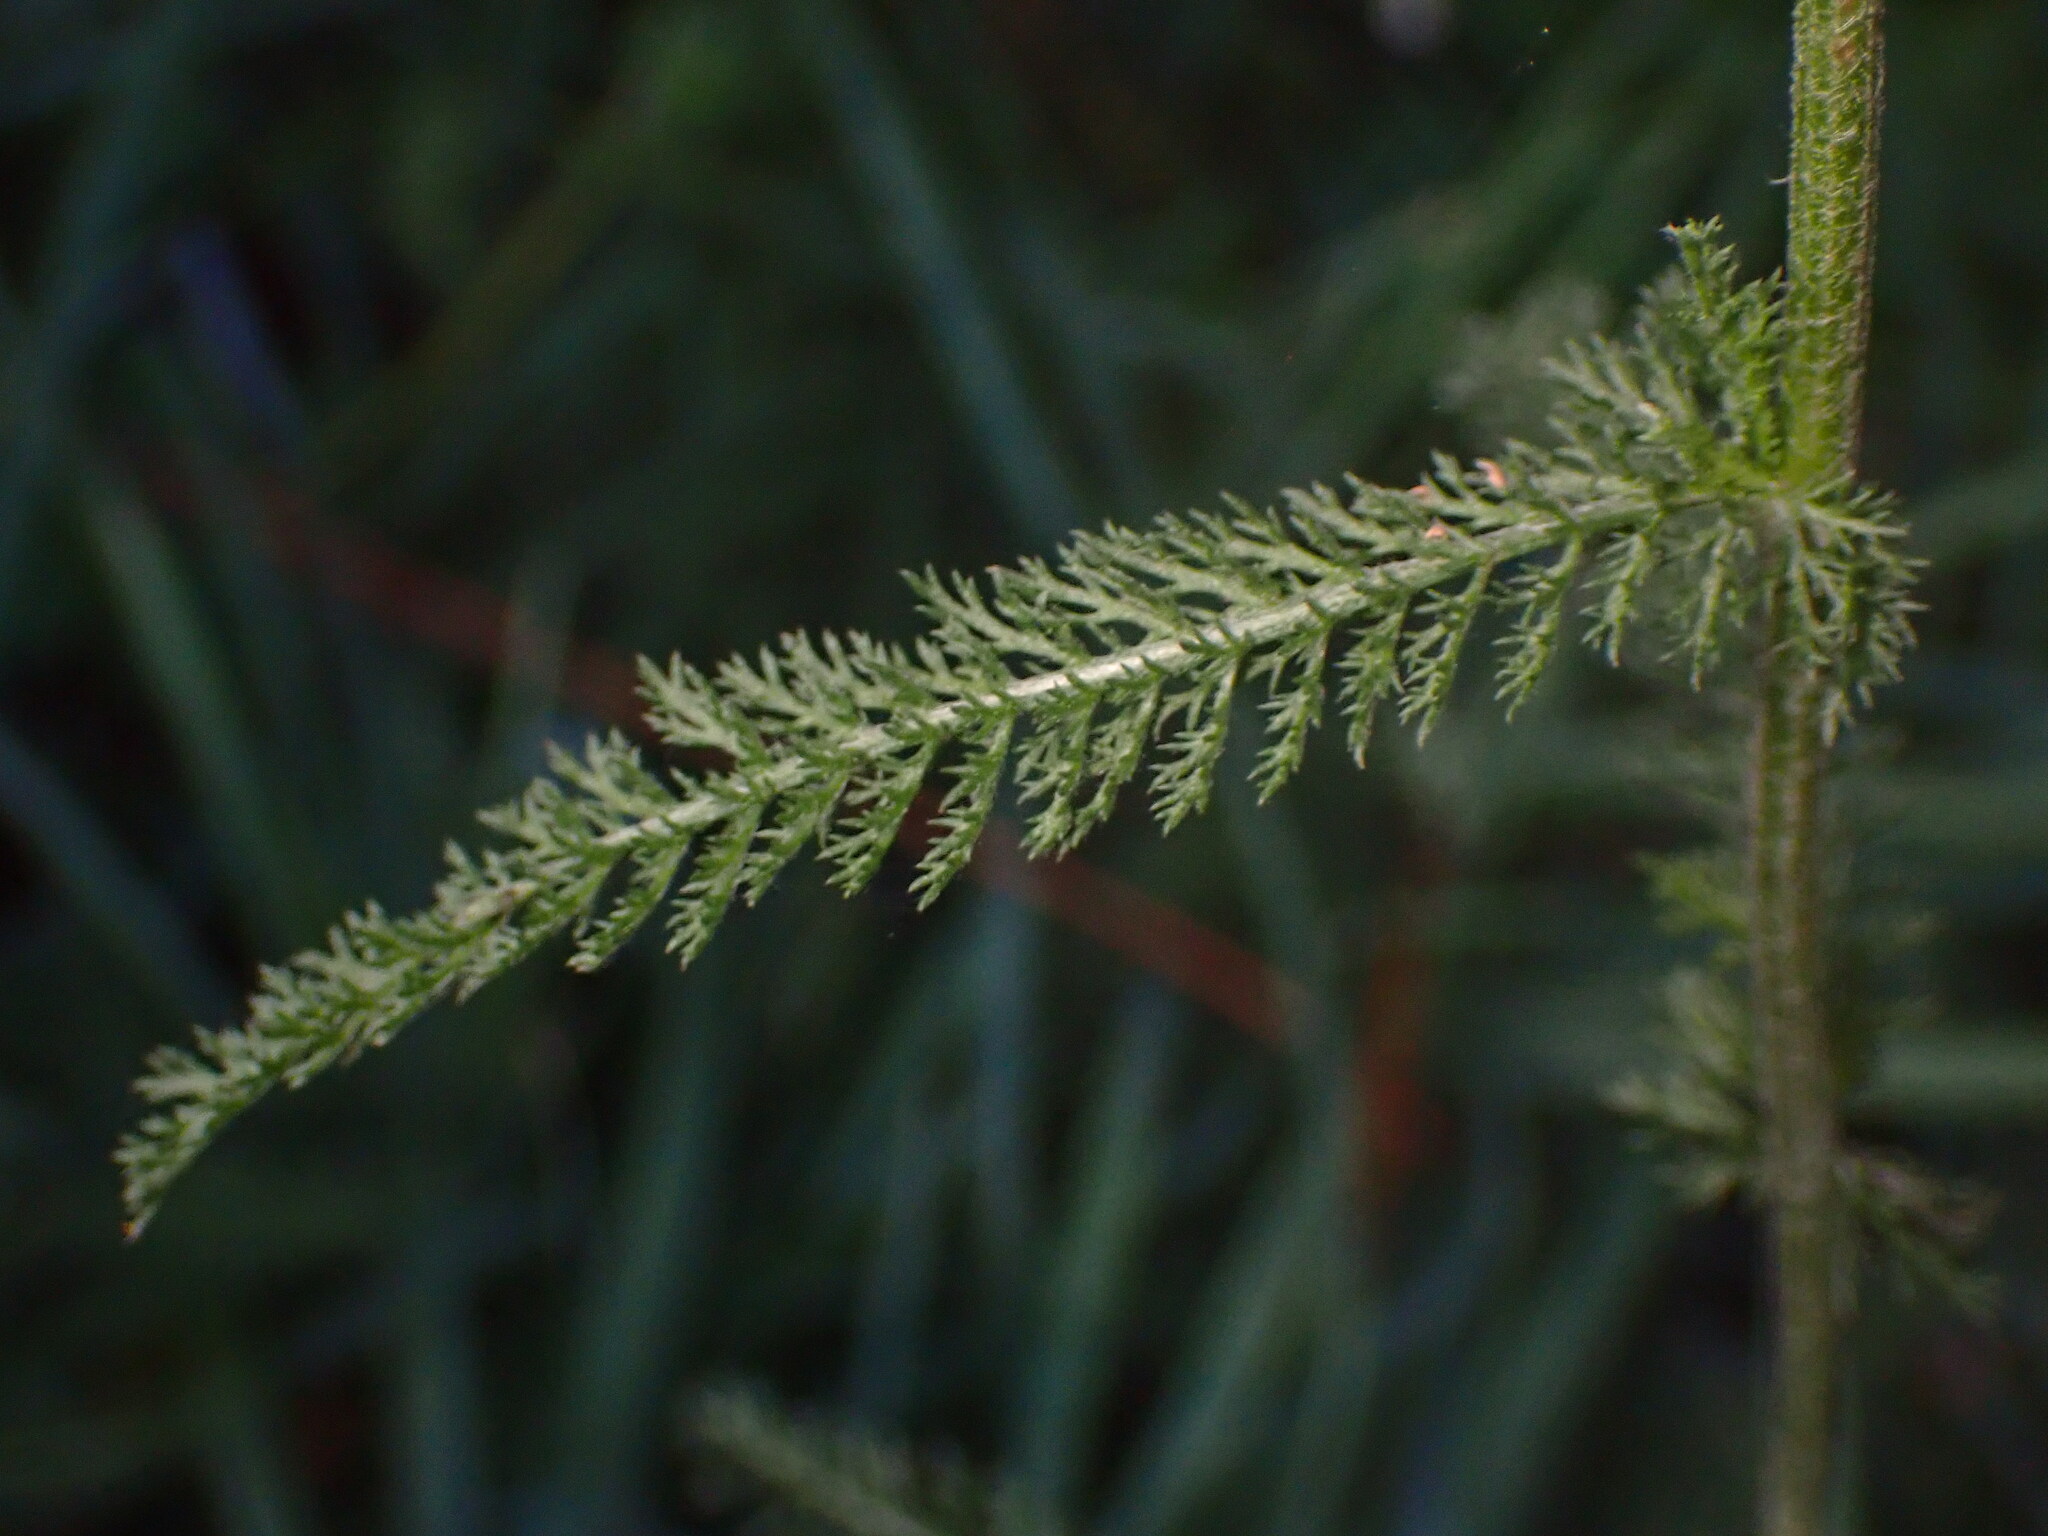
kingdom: Plantae
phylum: Tracheophyta
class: Magnoliopsida
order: Asterales
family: Asteraceae
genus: Achillea
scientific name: Achillea millefolium
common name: Yarrow
